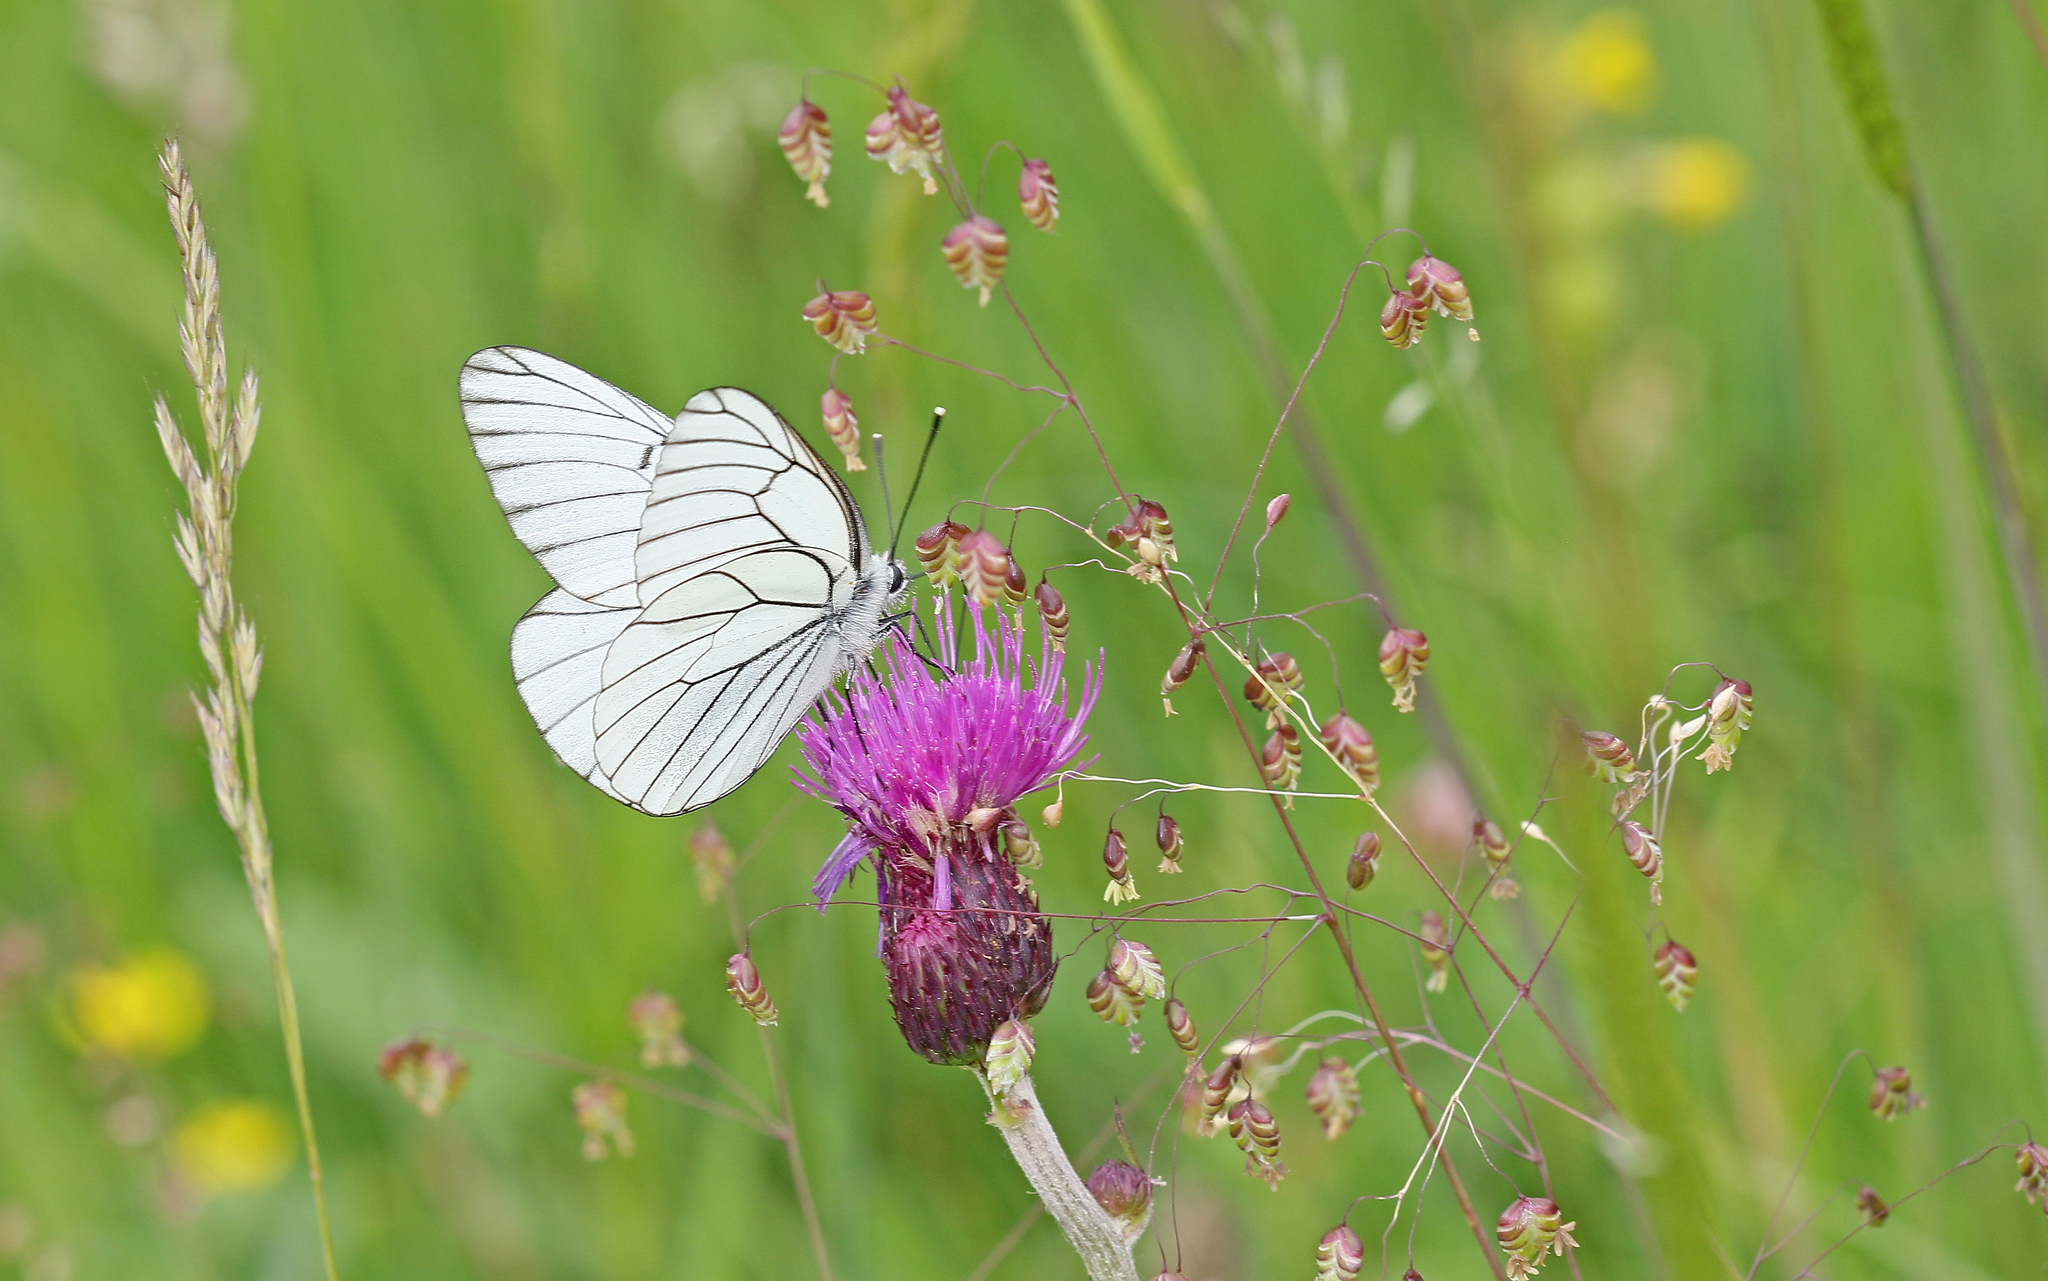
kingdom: Animalia
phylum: Arthropoda
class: Insecta
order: Lepidoptera
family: Pieridae
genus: Aporia
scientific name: Aporia crataegi
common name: Black-veined white
